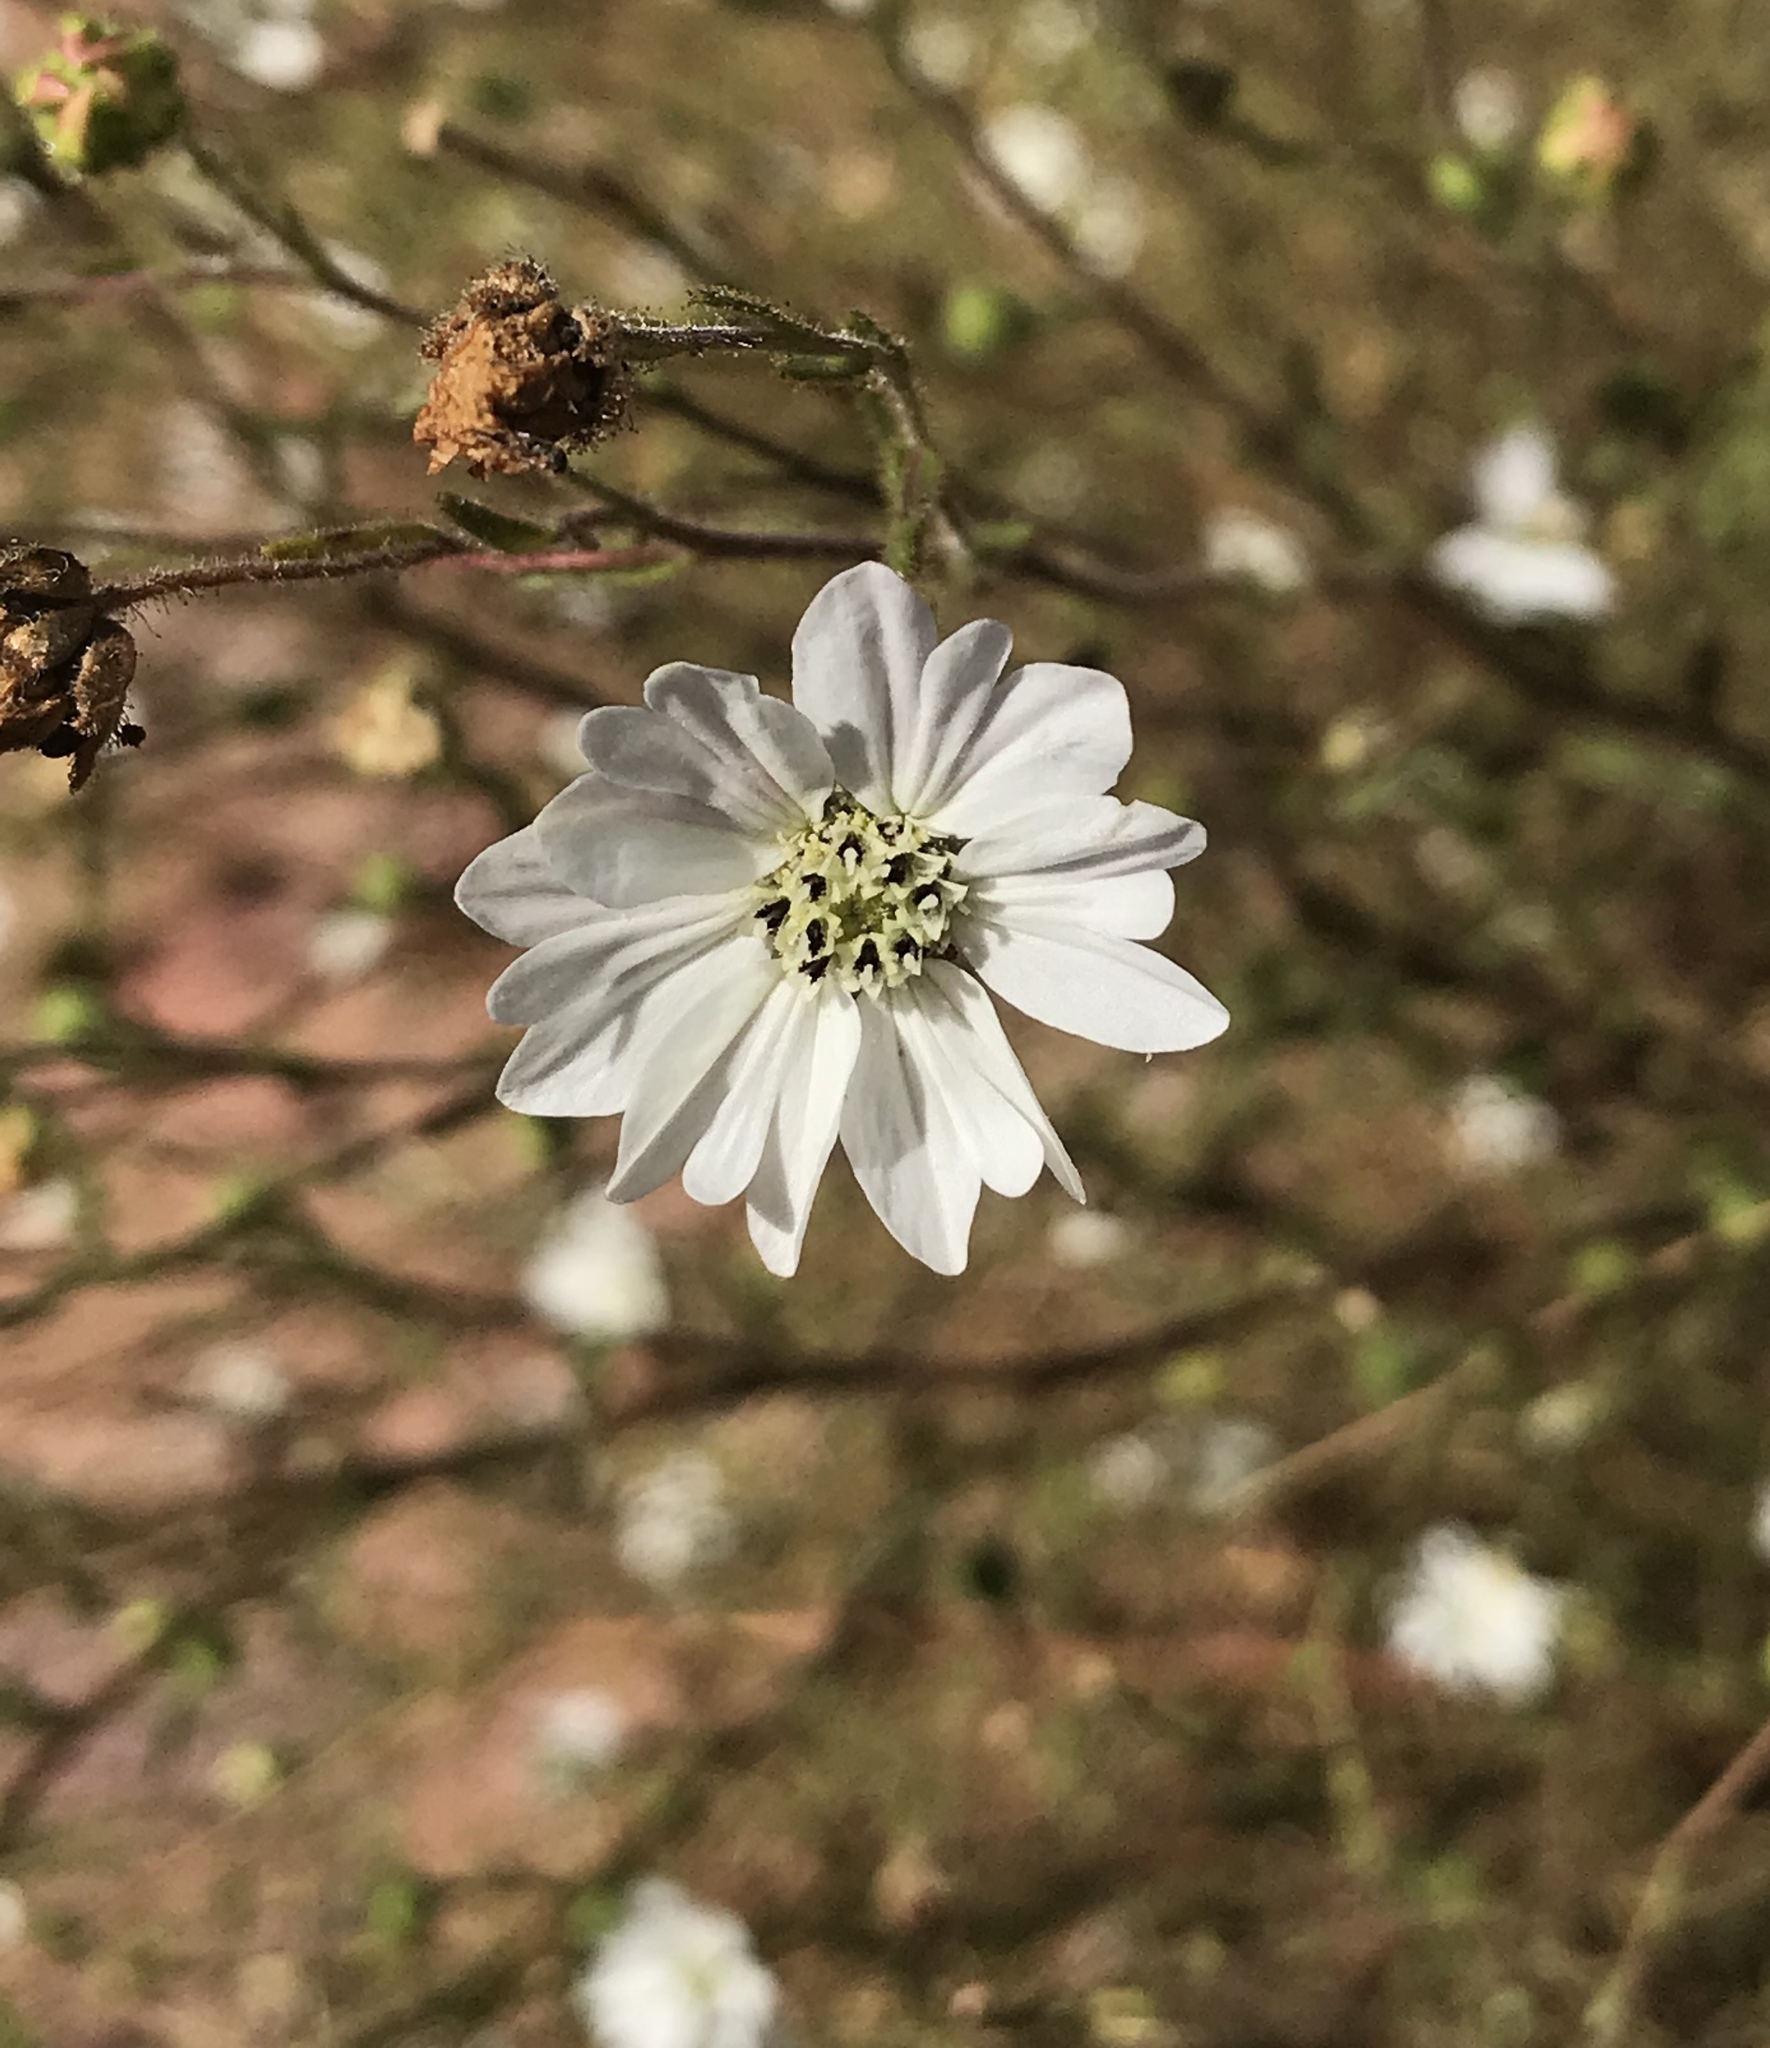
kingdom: Plantae
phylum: Tracheophyta
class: Magnoliopsida
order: Asterales
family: Asteraceae
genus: Hemizonia
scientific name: Hemizonia congesta
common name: Hayfield tarweed
